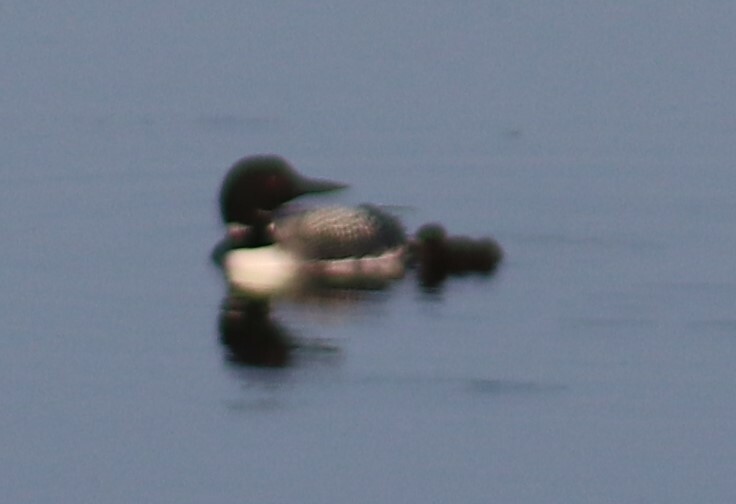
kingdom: Animalia
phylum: Chordata
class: Aves
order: Gaviiformes
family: Gaviidae
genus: Gavia
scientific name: Gavia immer
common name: Common loon
